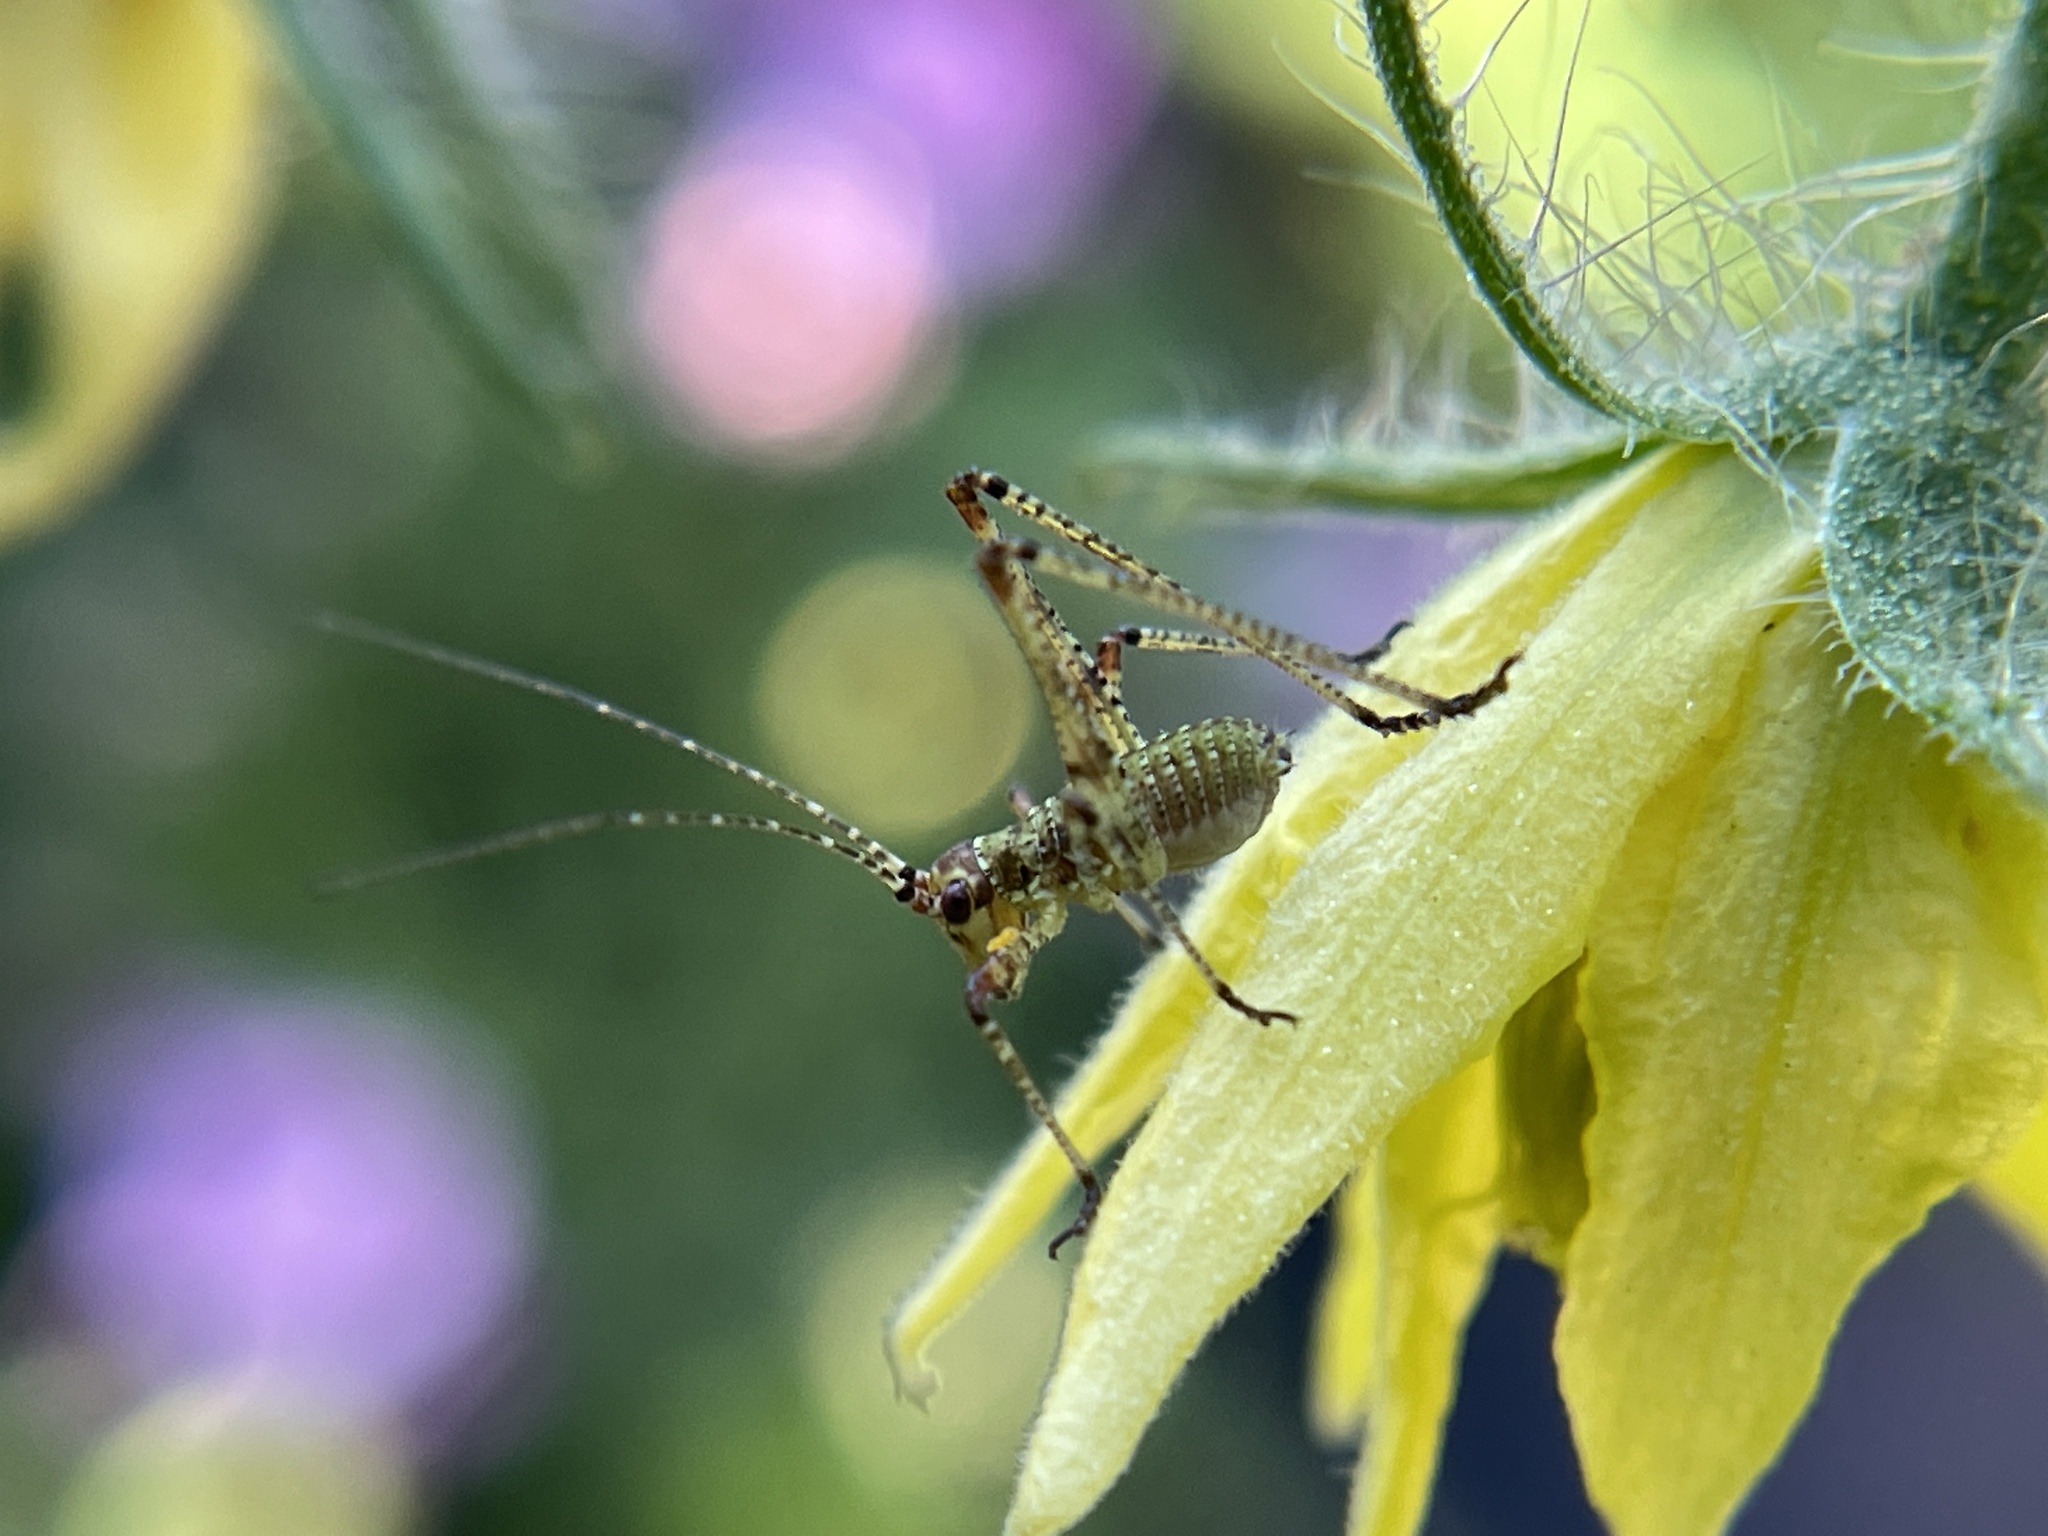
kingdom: Animalia
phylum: Arthropoda
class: Insecta
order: Orthoptera
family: Tettigoniidae
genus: Phaneroptera
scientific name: Phaneroptera nana
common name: Southern sickle bush-cricket
